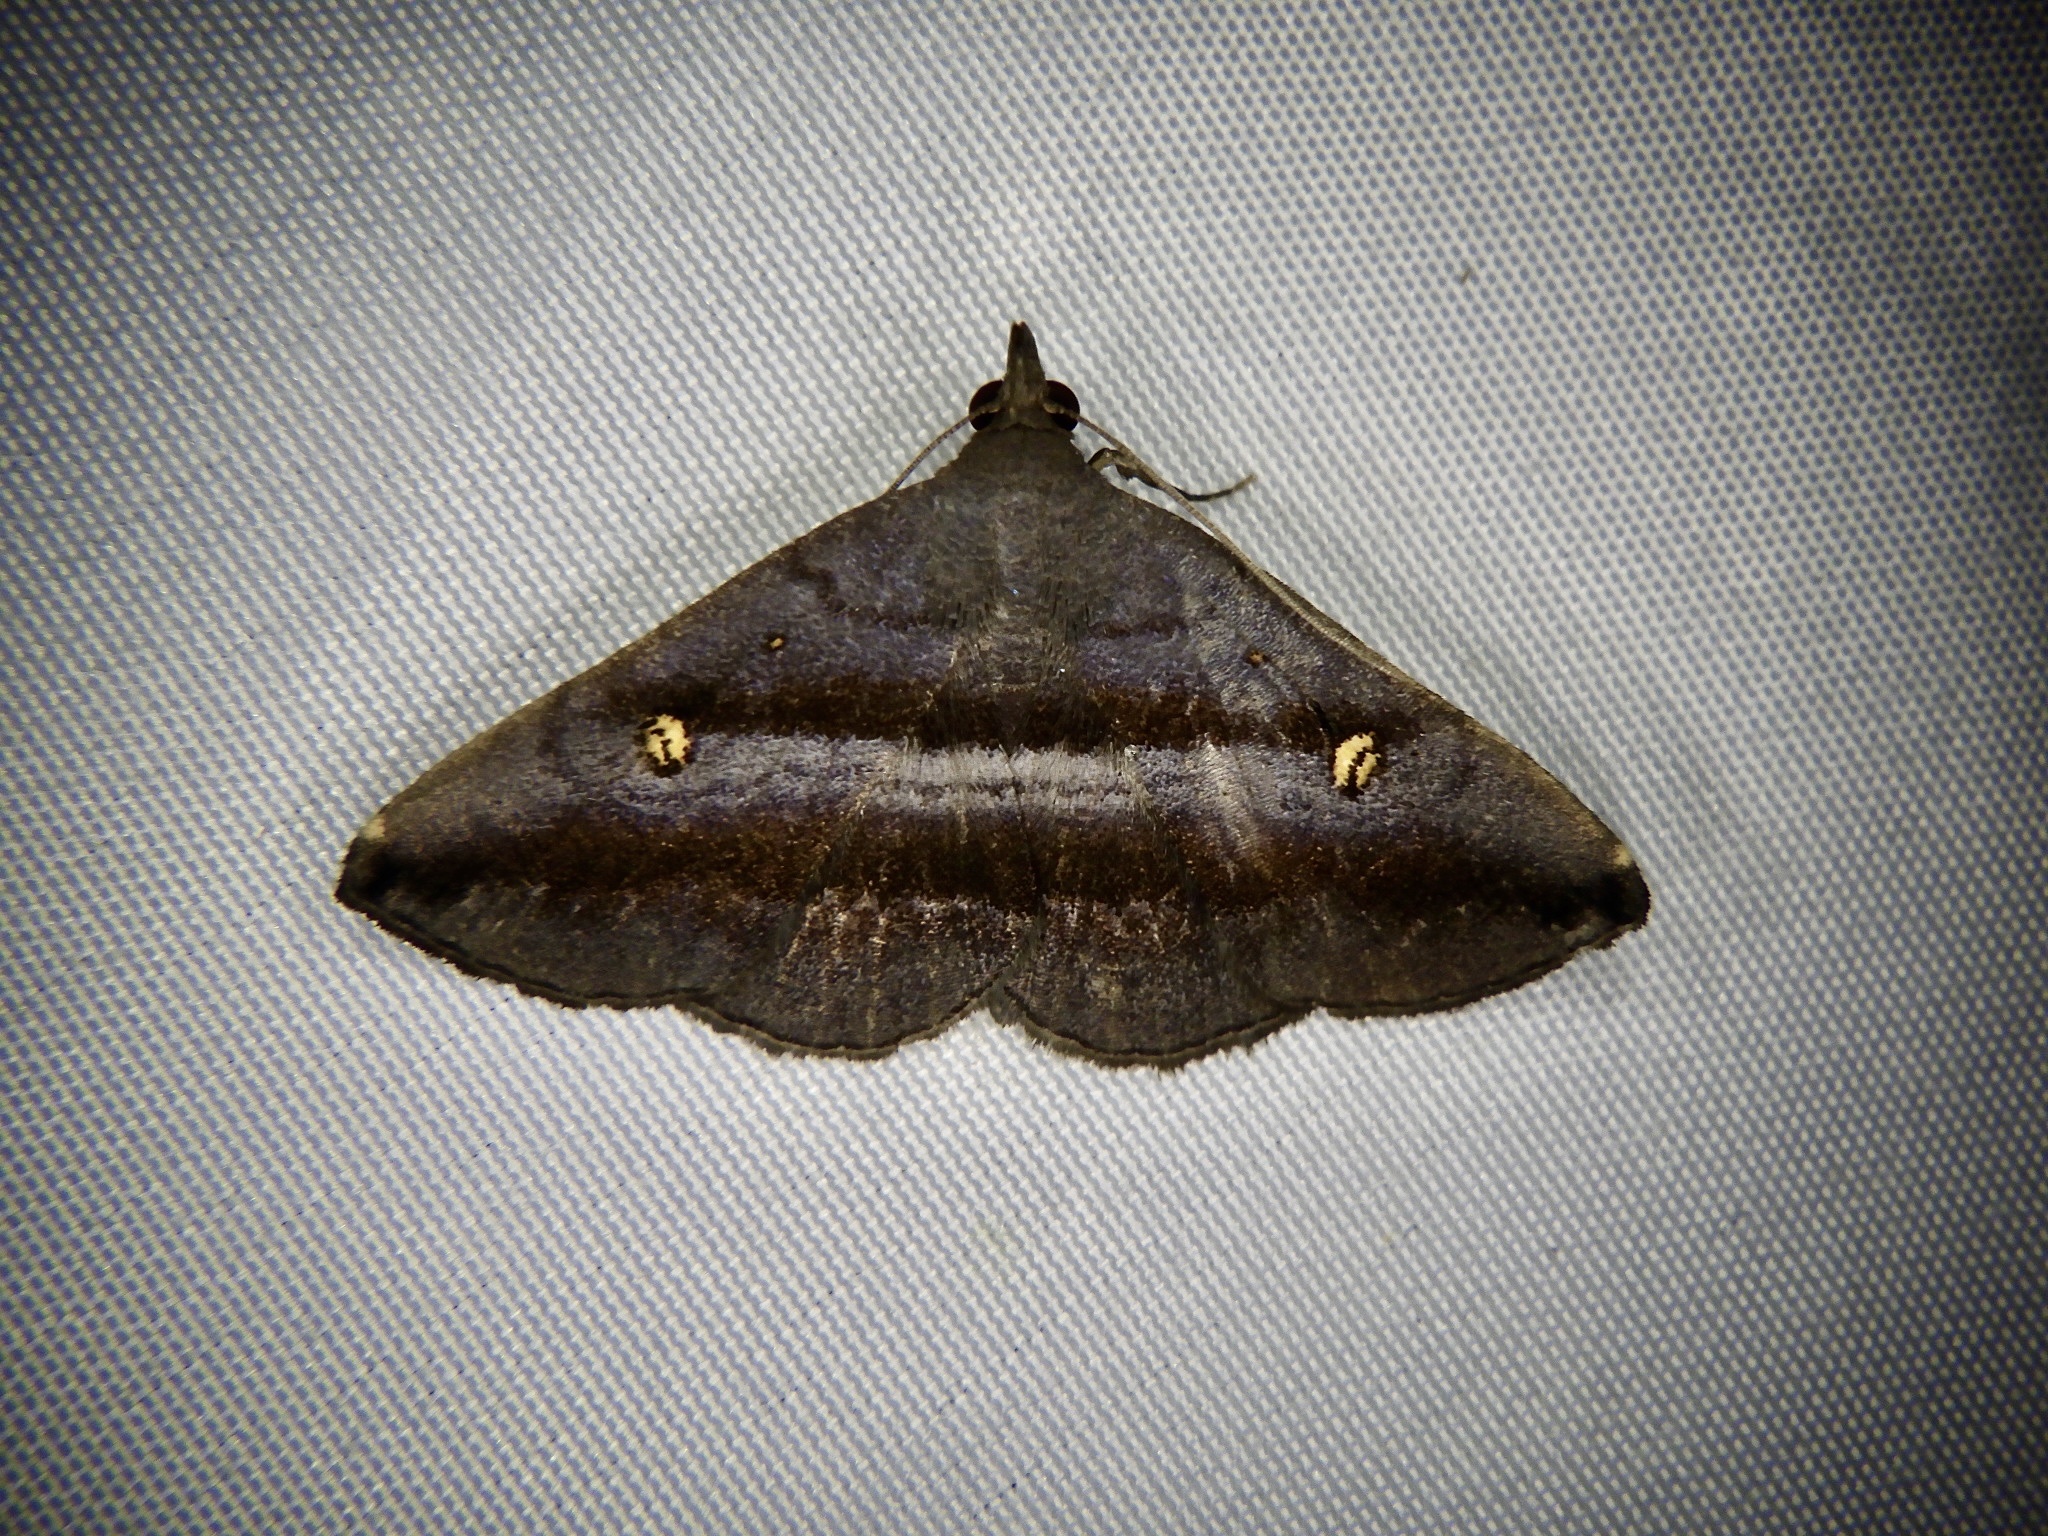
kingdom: Animalia
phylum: Arthropoda
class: Insecta
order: Lepidoptera
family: Erebidae
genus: Hadennia
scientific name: Hadennia nakatanii
